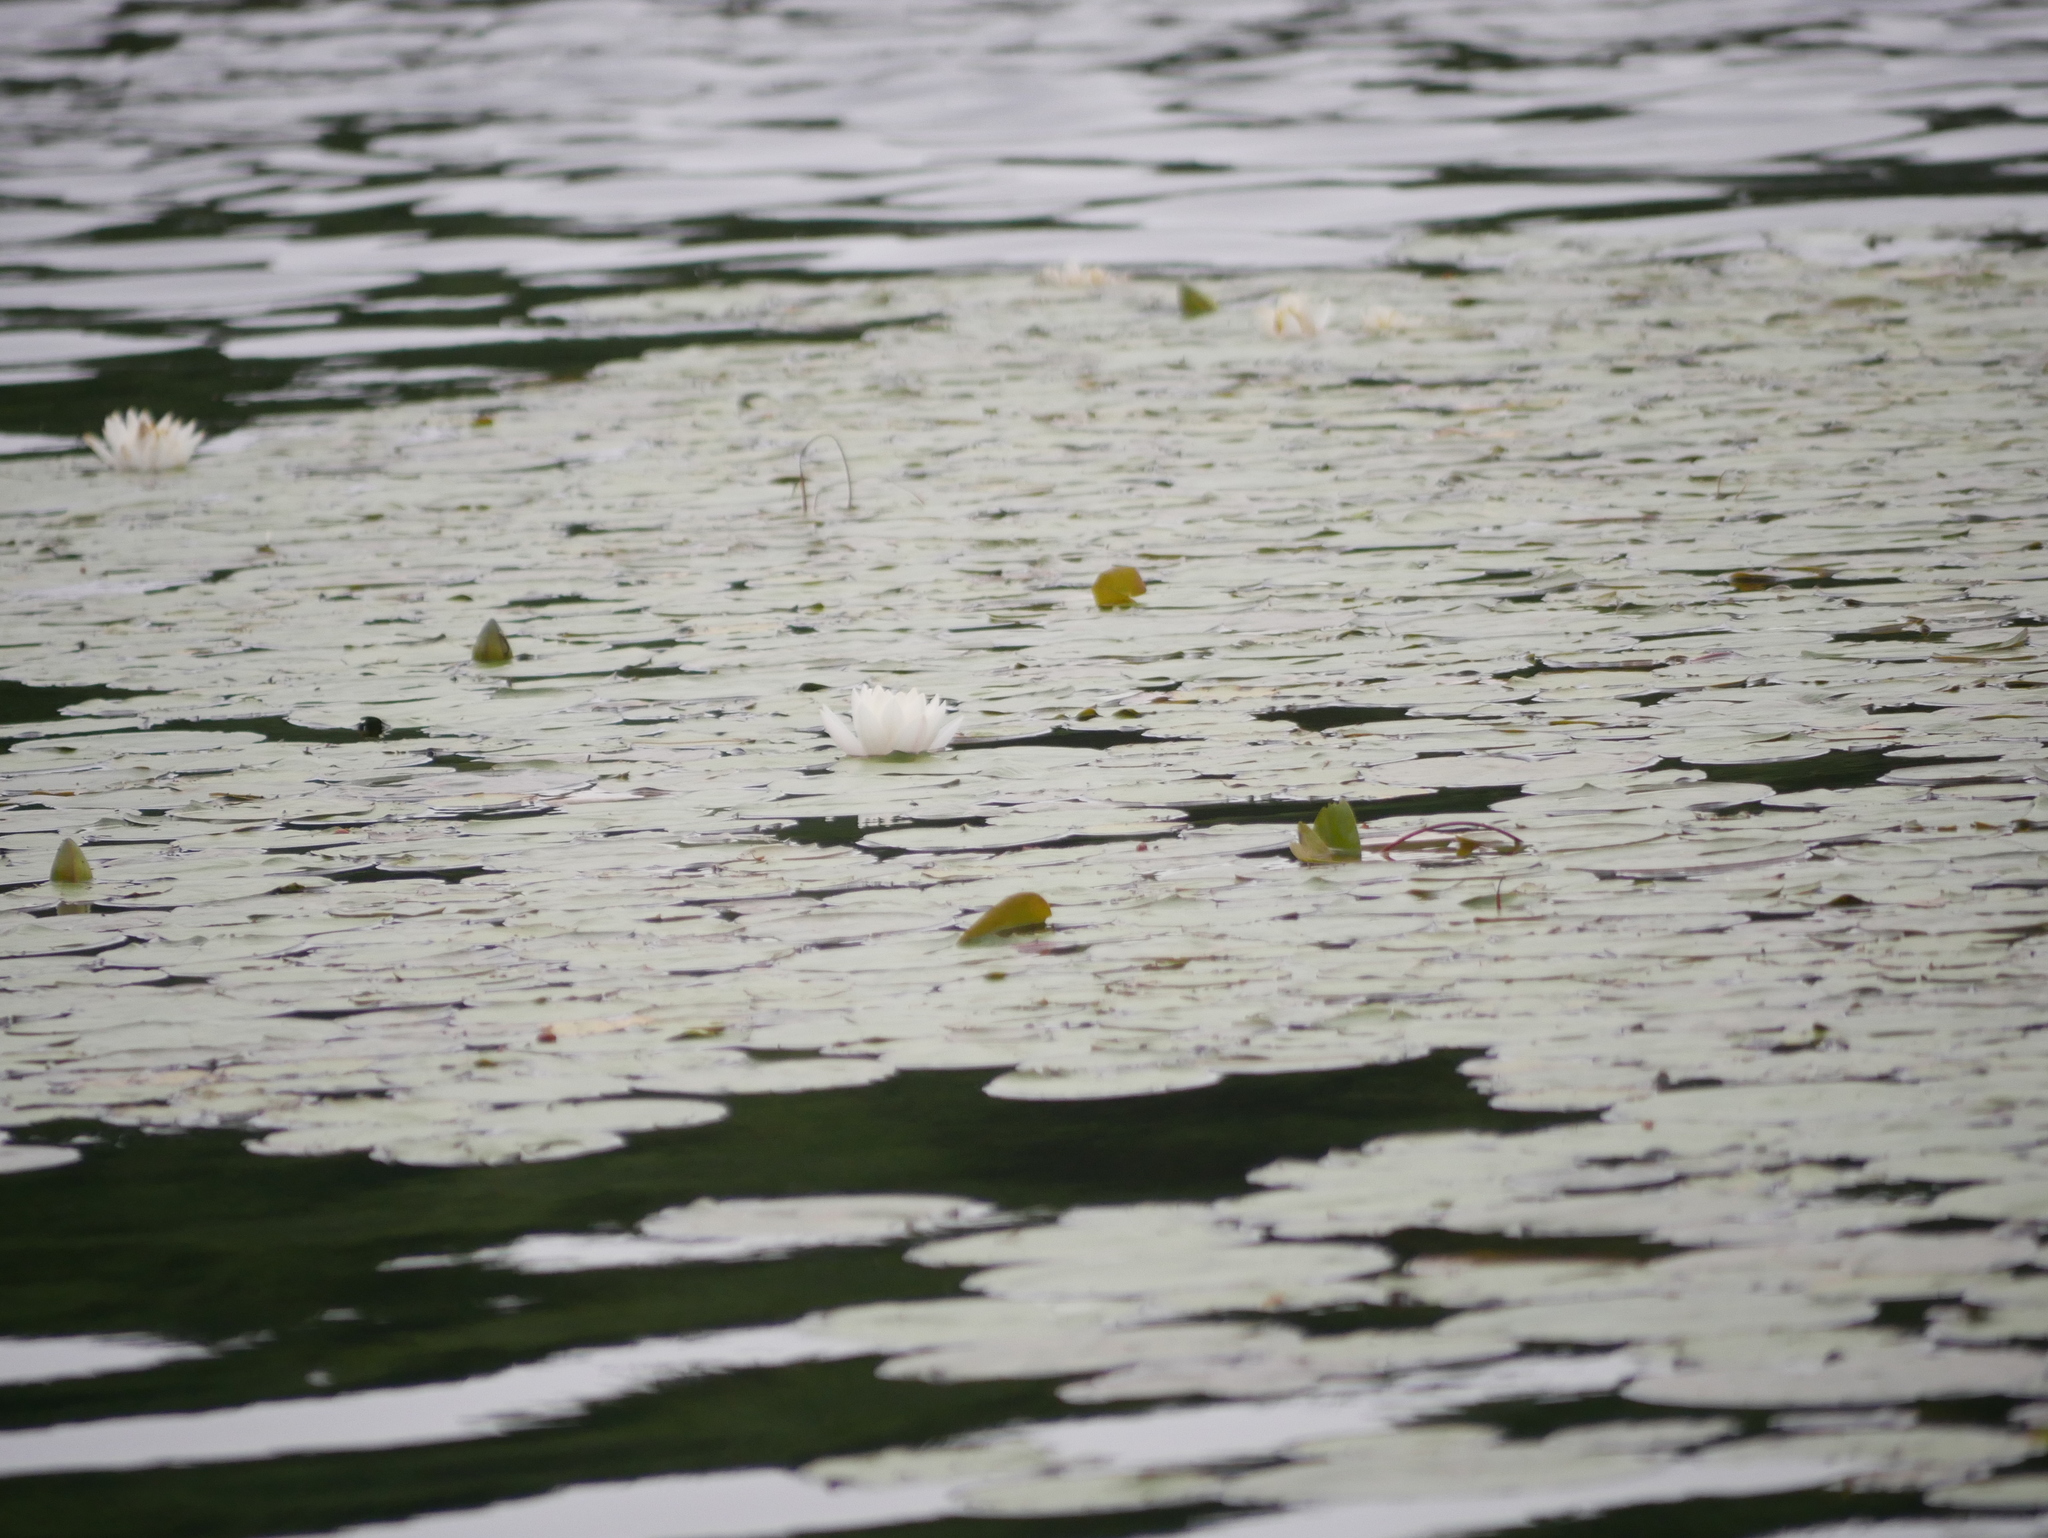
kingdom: Plantae
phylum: Tracheophyta
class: Magnoliopsida
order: Nymphaeales
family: Nymphaeaceae
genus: Nymphaea
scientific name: Nymphaea odorata
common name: Fragrant water-lily
